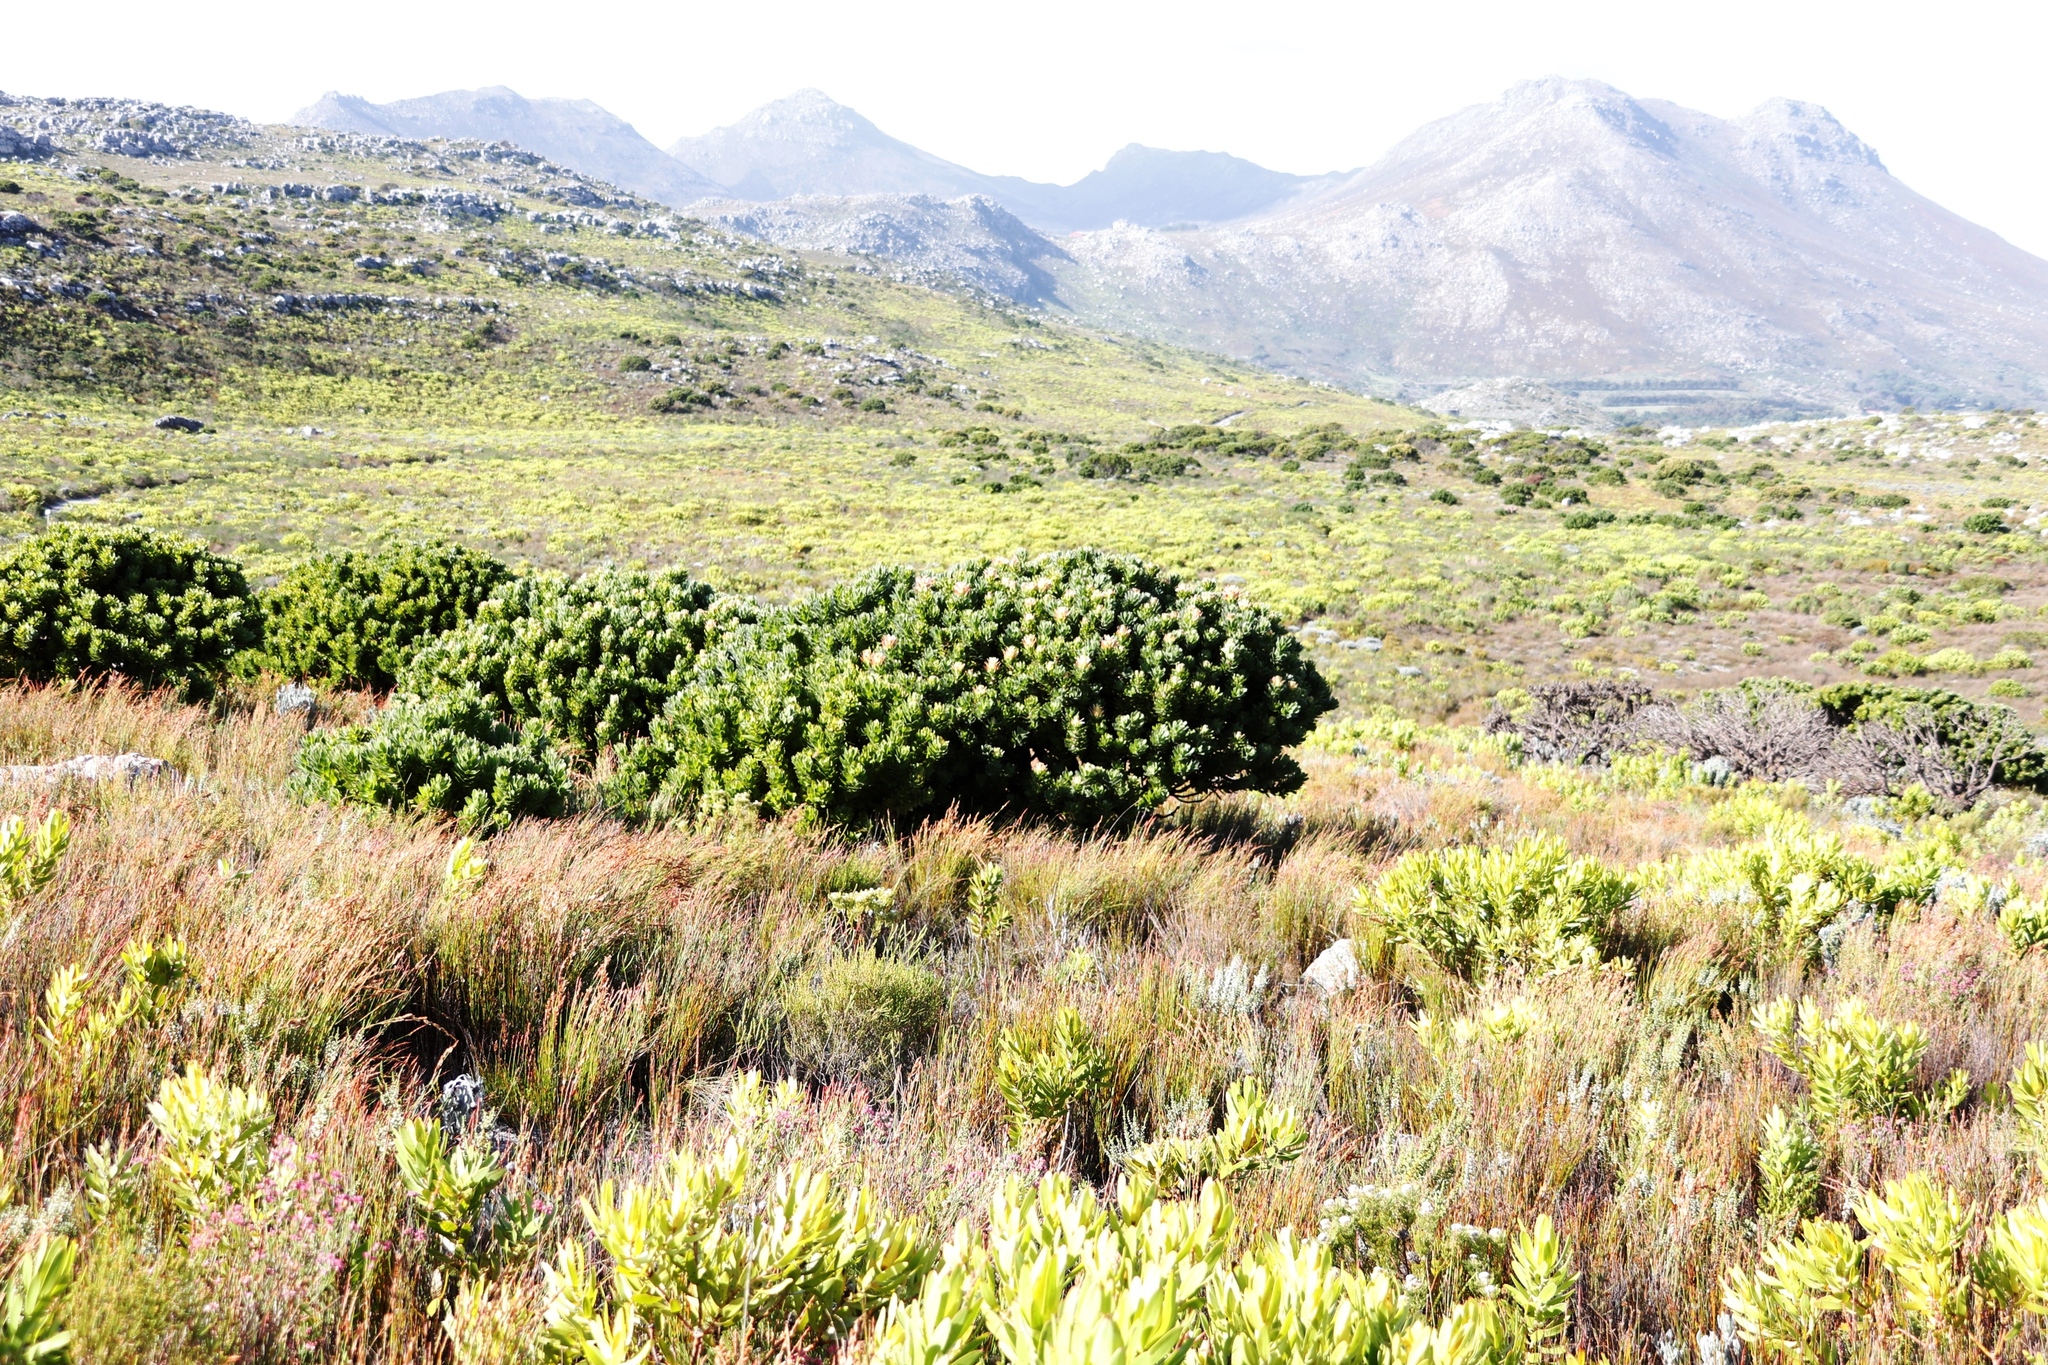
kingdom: Plantae
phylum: Tracheophyta
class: Magnoliopsida
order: Proteales
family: Proteaceae
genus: Mimetes
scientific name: Mimetes fimbriifolius
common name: Fringed bottlebrush
